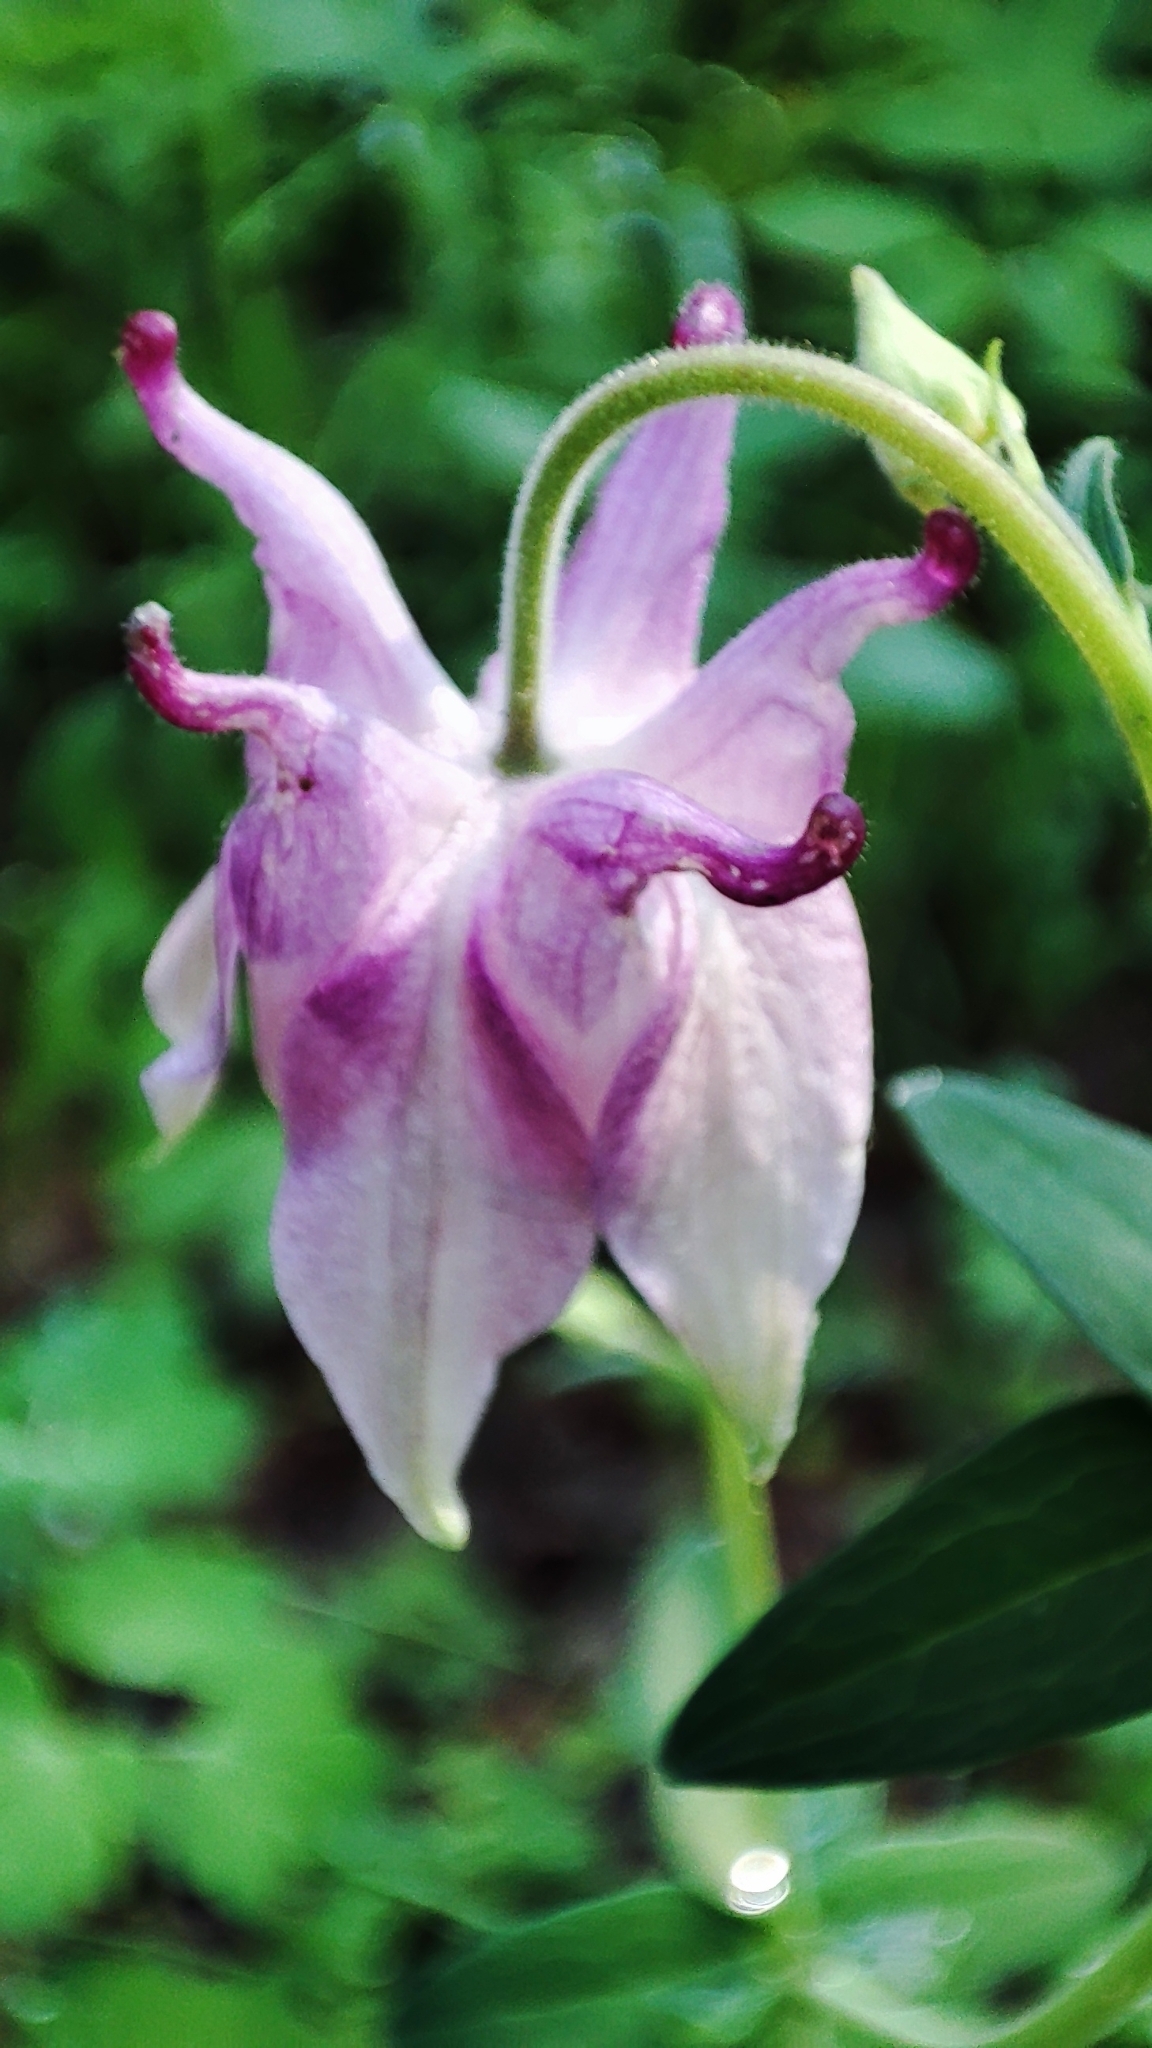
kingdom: Plantae
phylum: Tracheophyta
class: Magnoliopsida
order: Ranunculales
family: Ranunculaceae
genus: Aquilegia
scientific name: Aquilegia vulgaris
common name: Columbine
